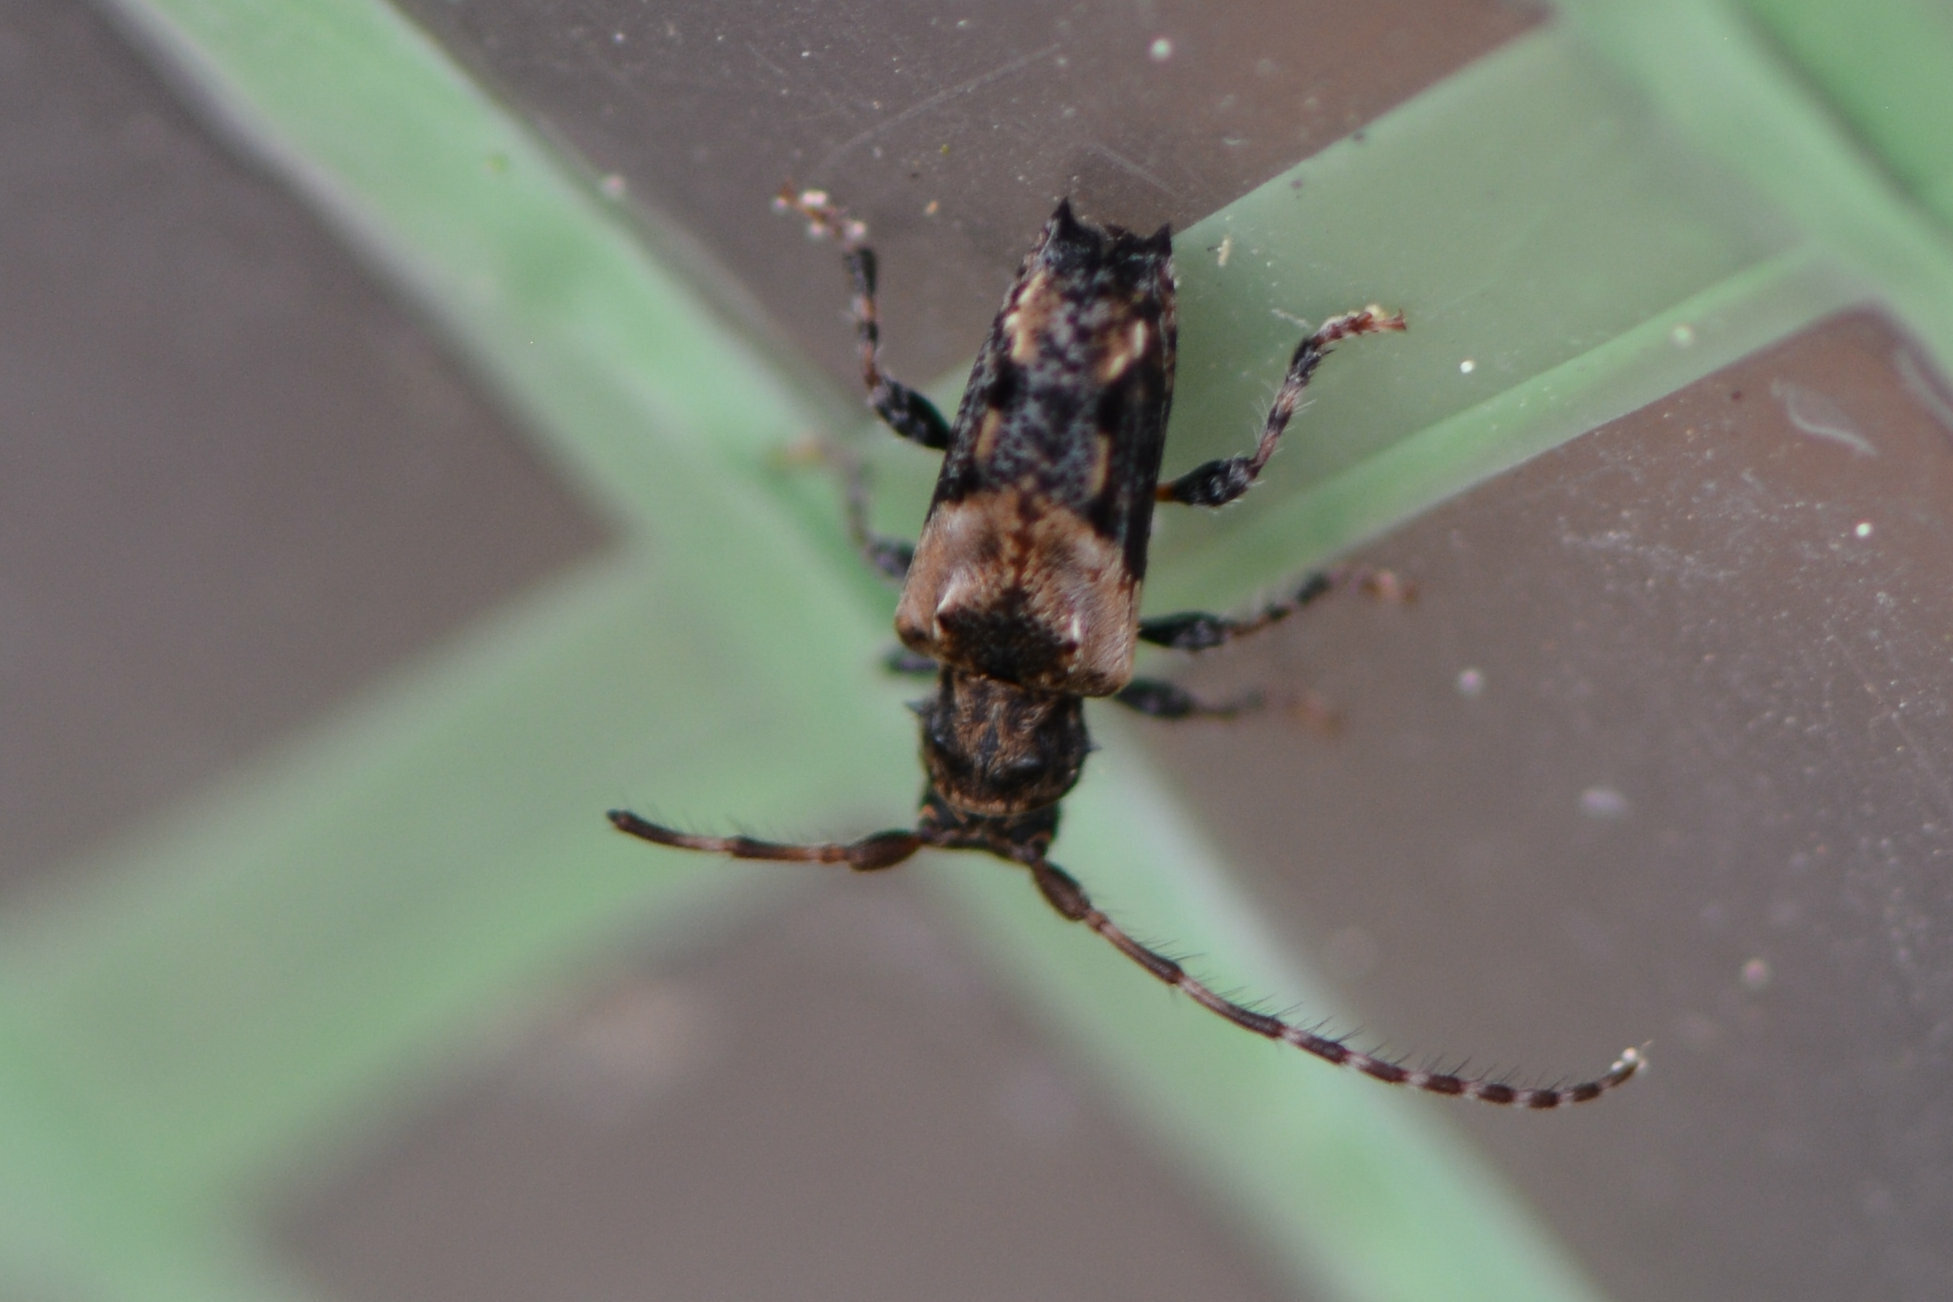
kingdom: Animalia
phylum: Arthropoda
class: Insecta
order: Coleoptera
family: Cerambycidae
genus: Pogonocherus
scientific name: Pogonocherus hispidus
